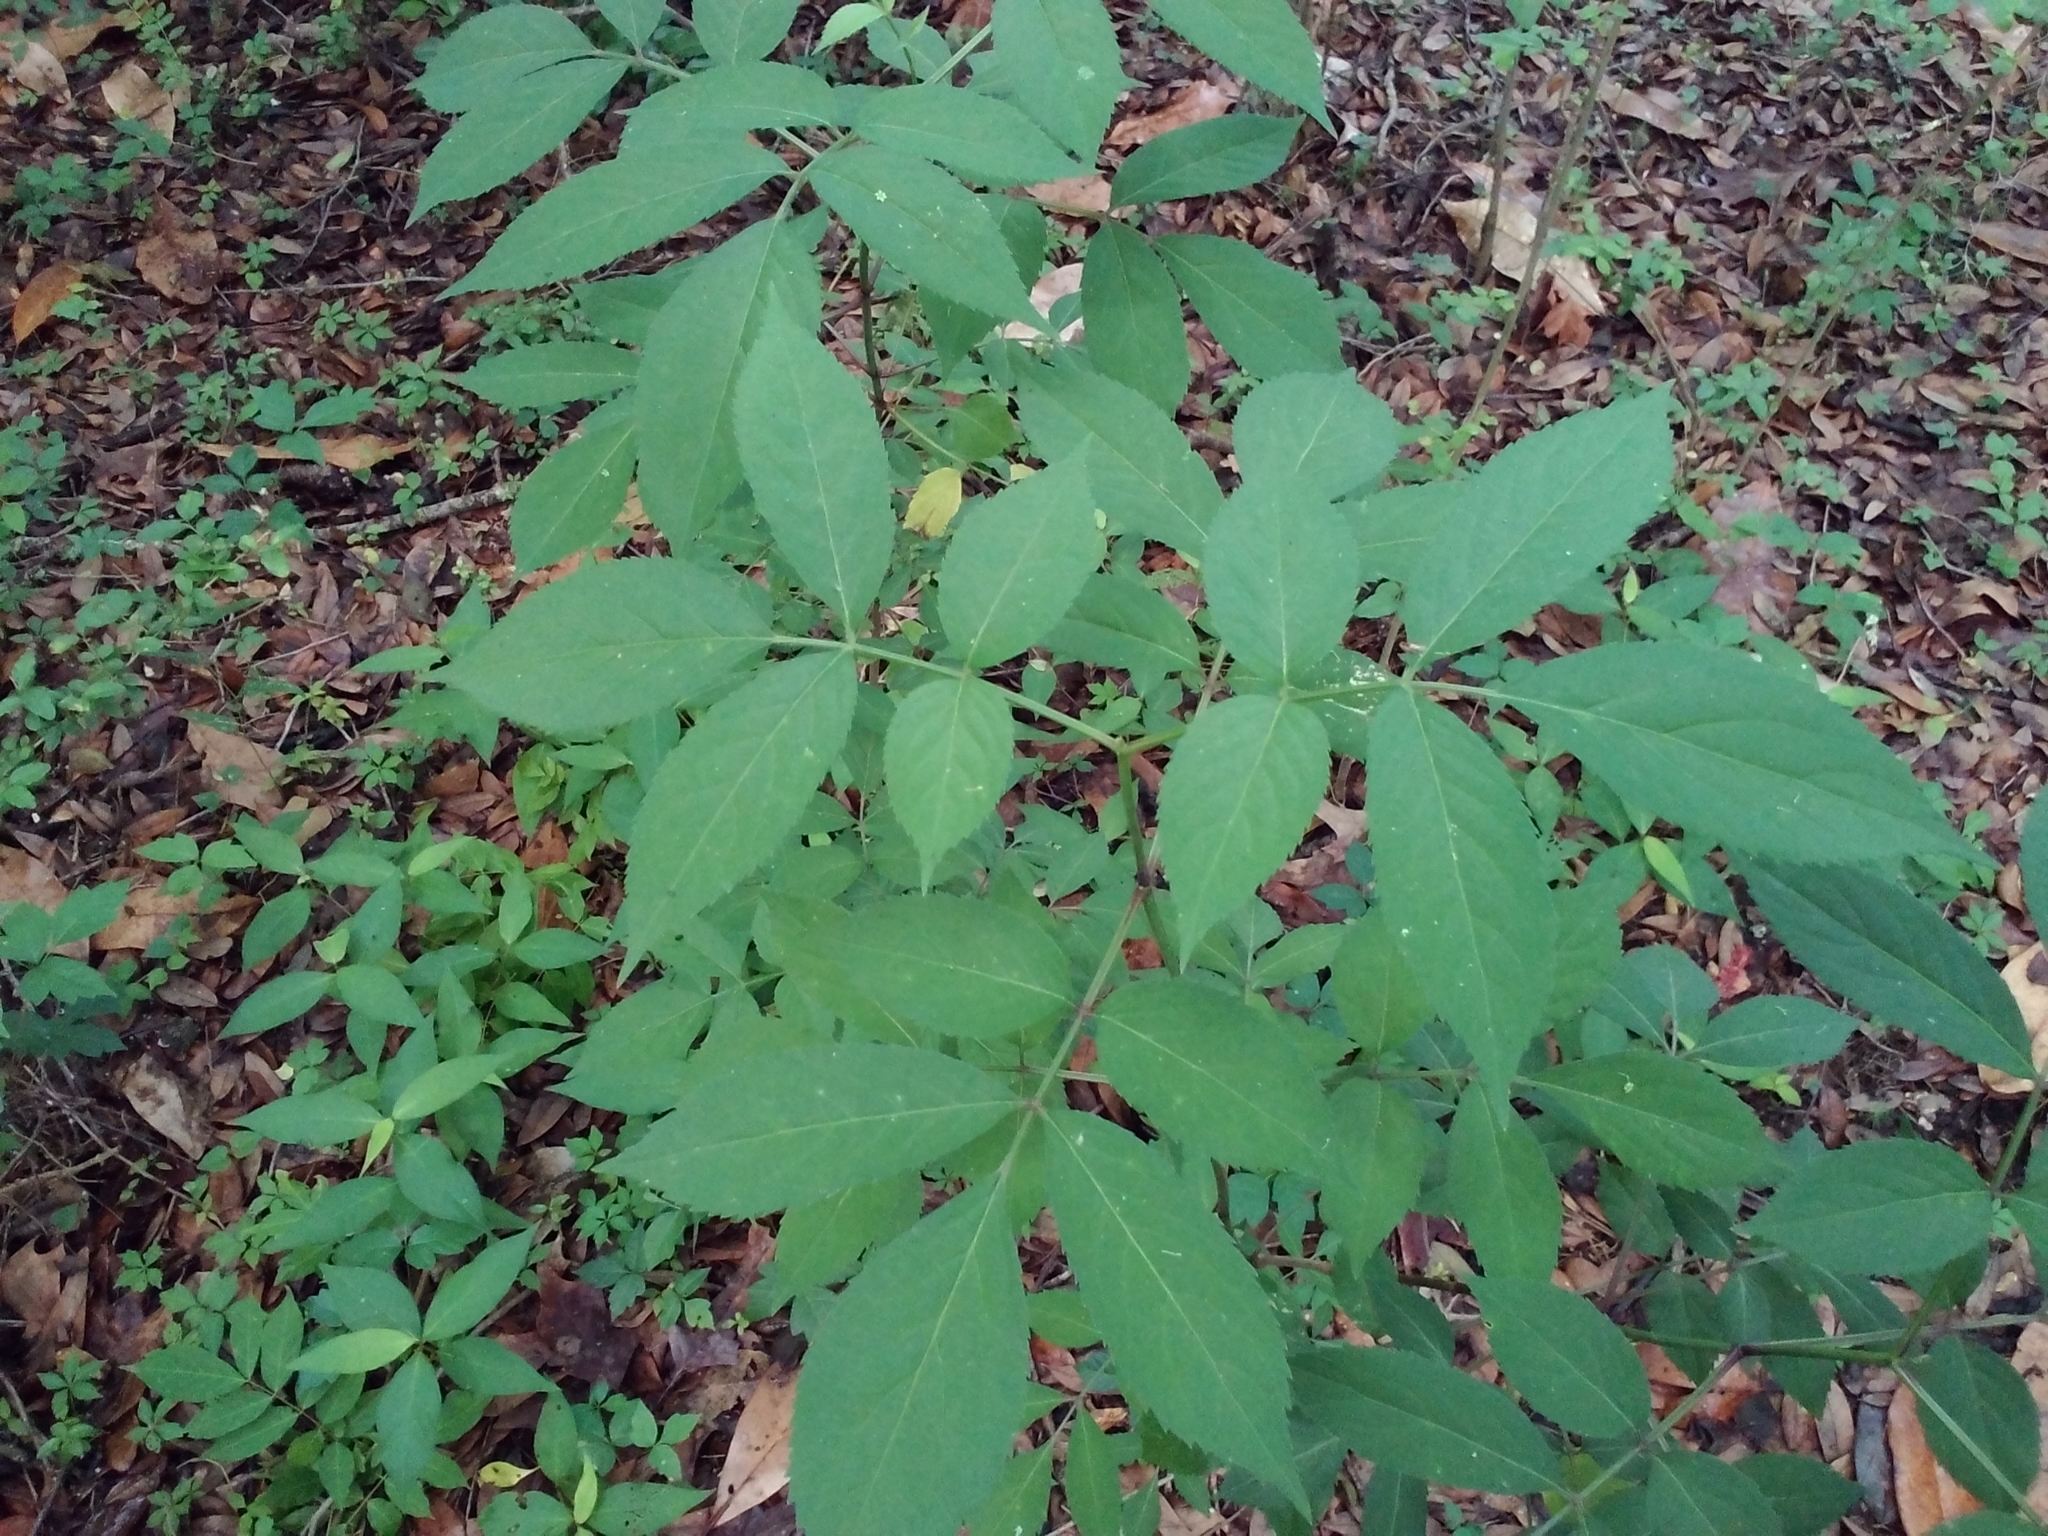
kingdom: Plantae
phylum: Tracheophyta
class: Magnoliopsida
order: Dipsacales
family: Viburnaceae
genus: Sambucus
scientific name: Sambucus canadensis
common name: American elder
